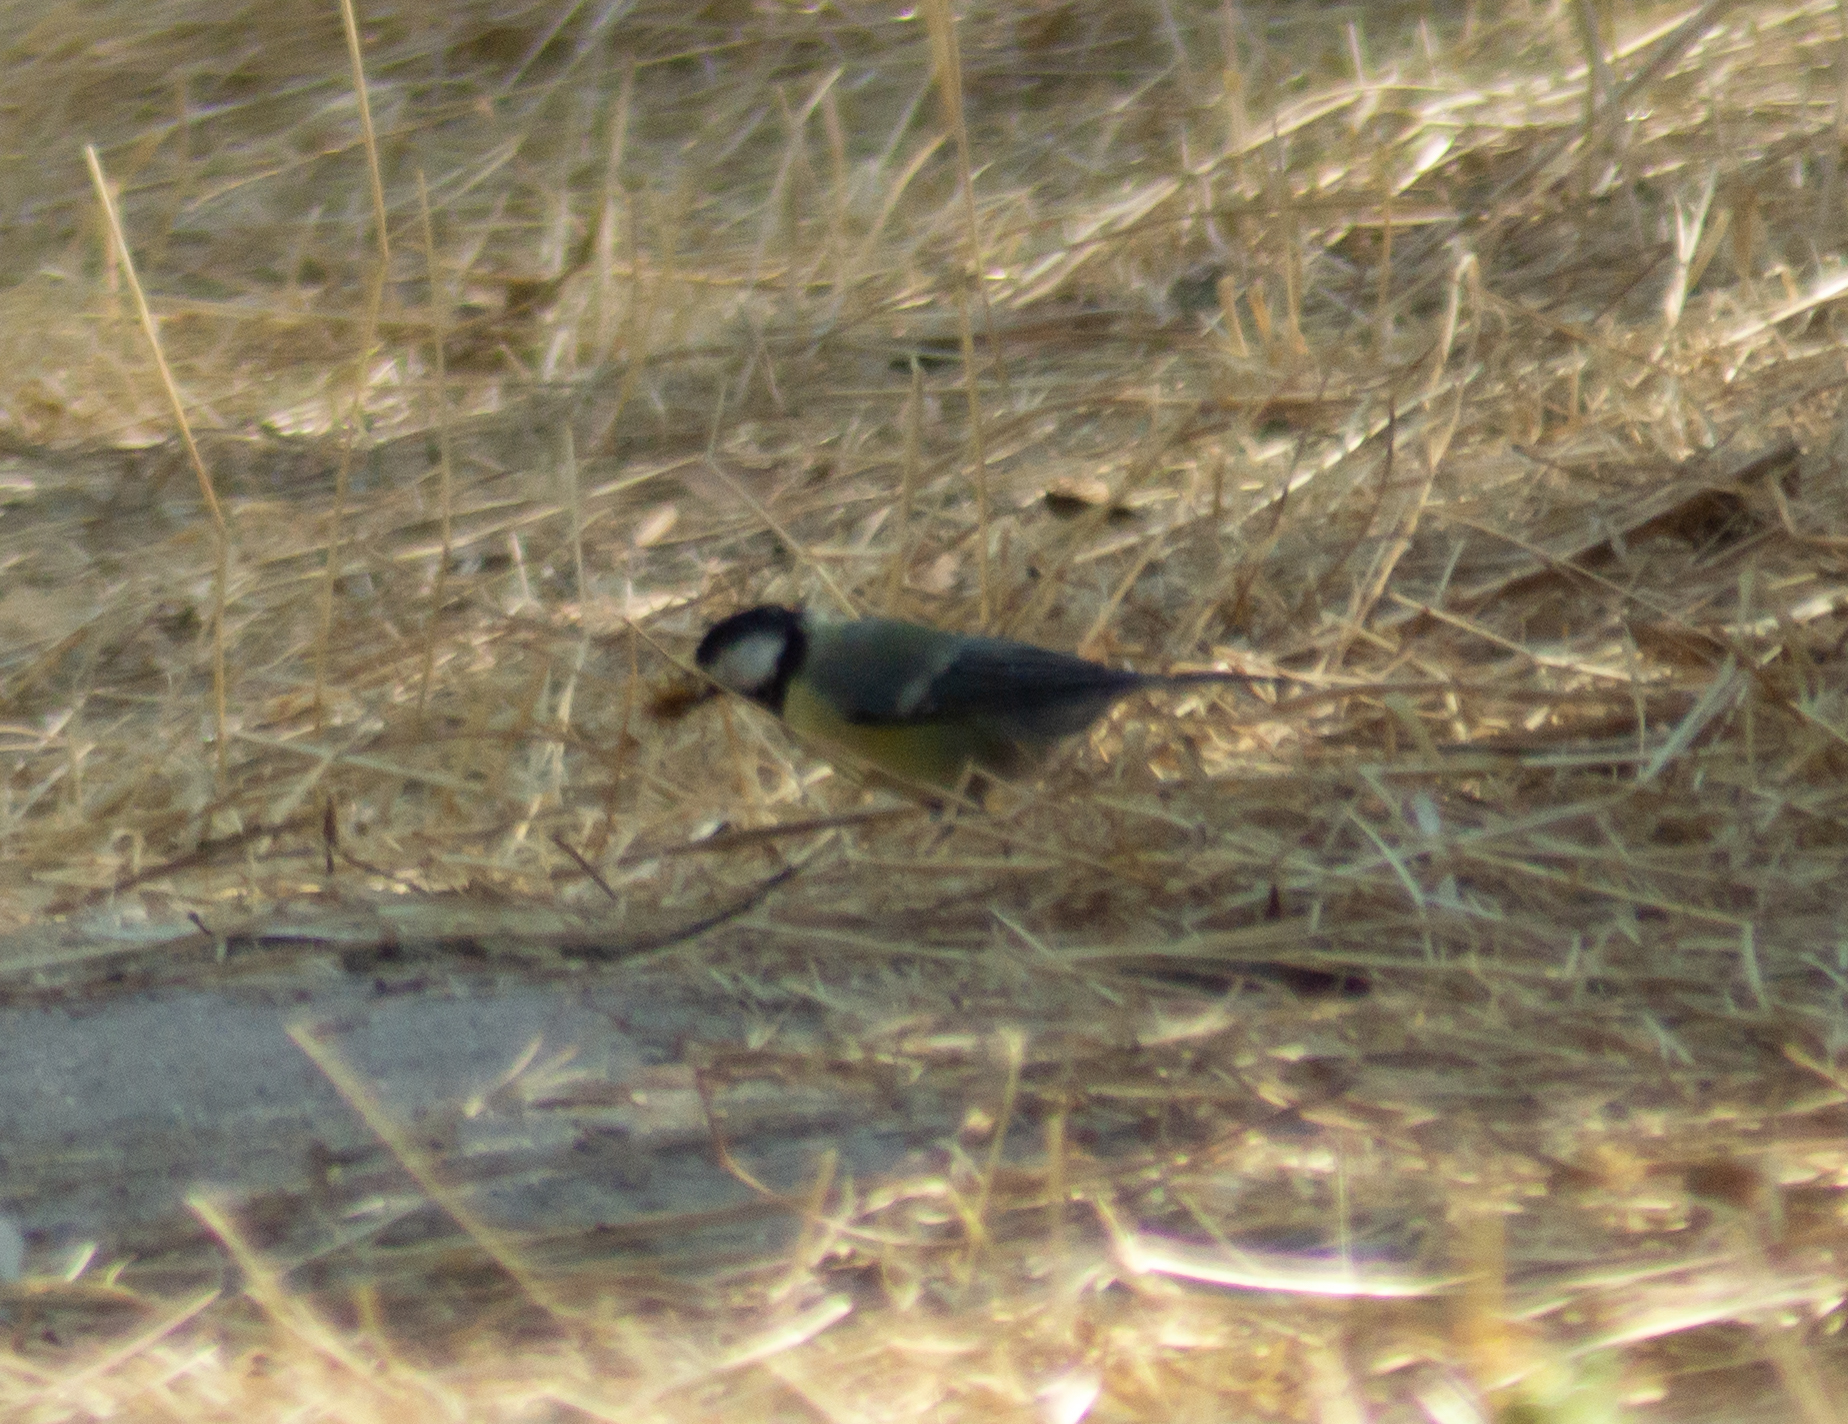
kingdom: Animalia
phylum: Chordata
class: Aves
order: Passeriformes
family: Paridae
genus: Parus
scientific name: Parus major
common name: Great tit
